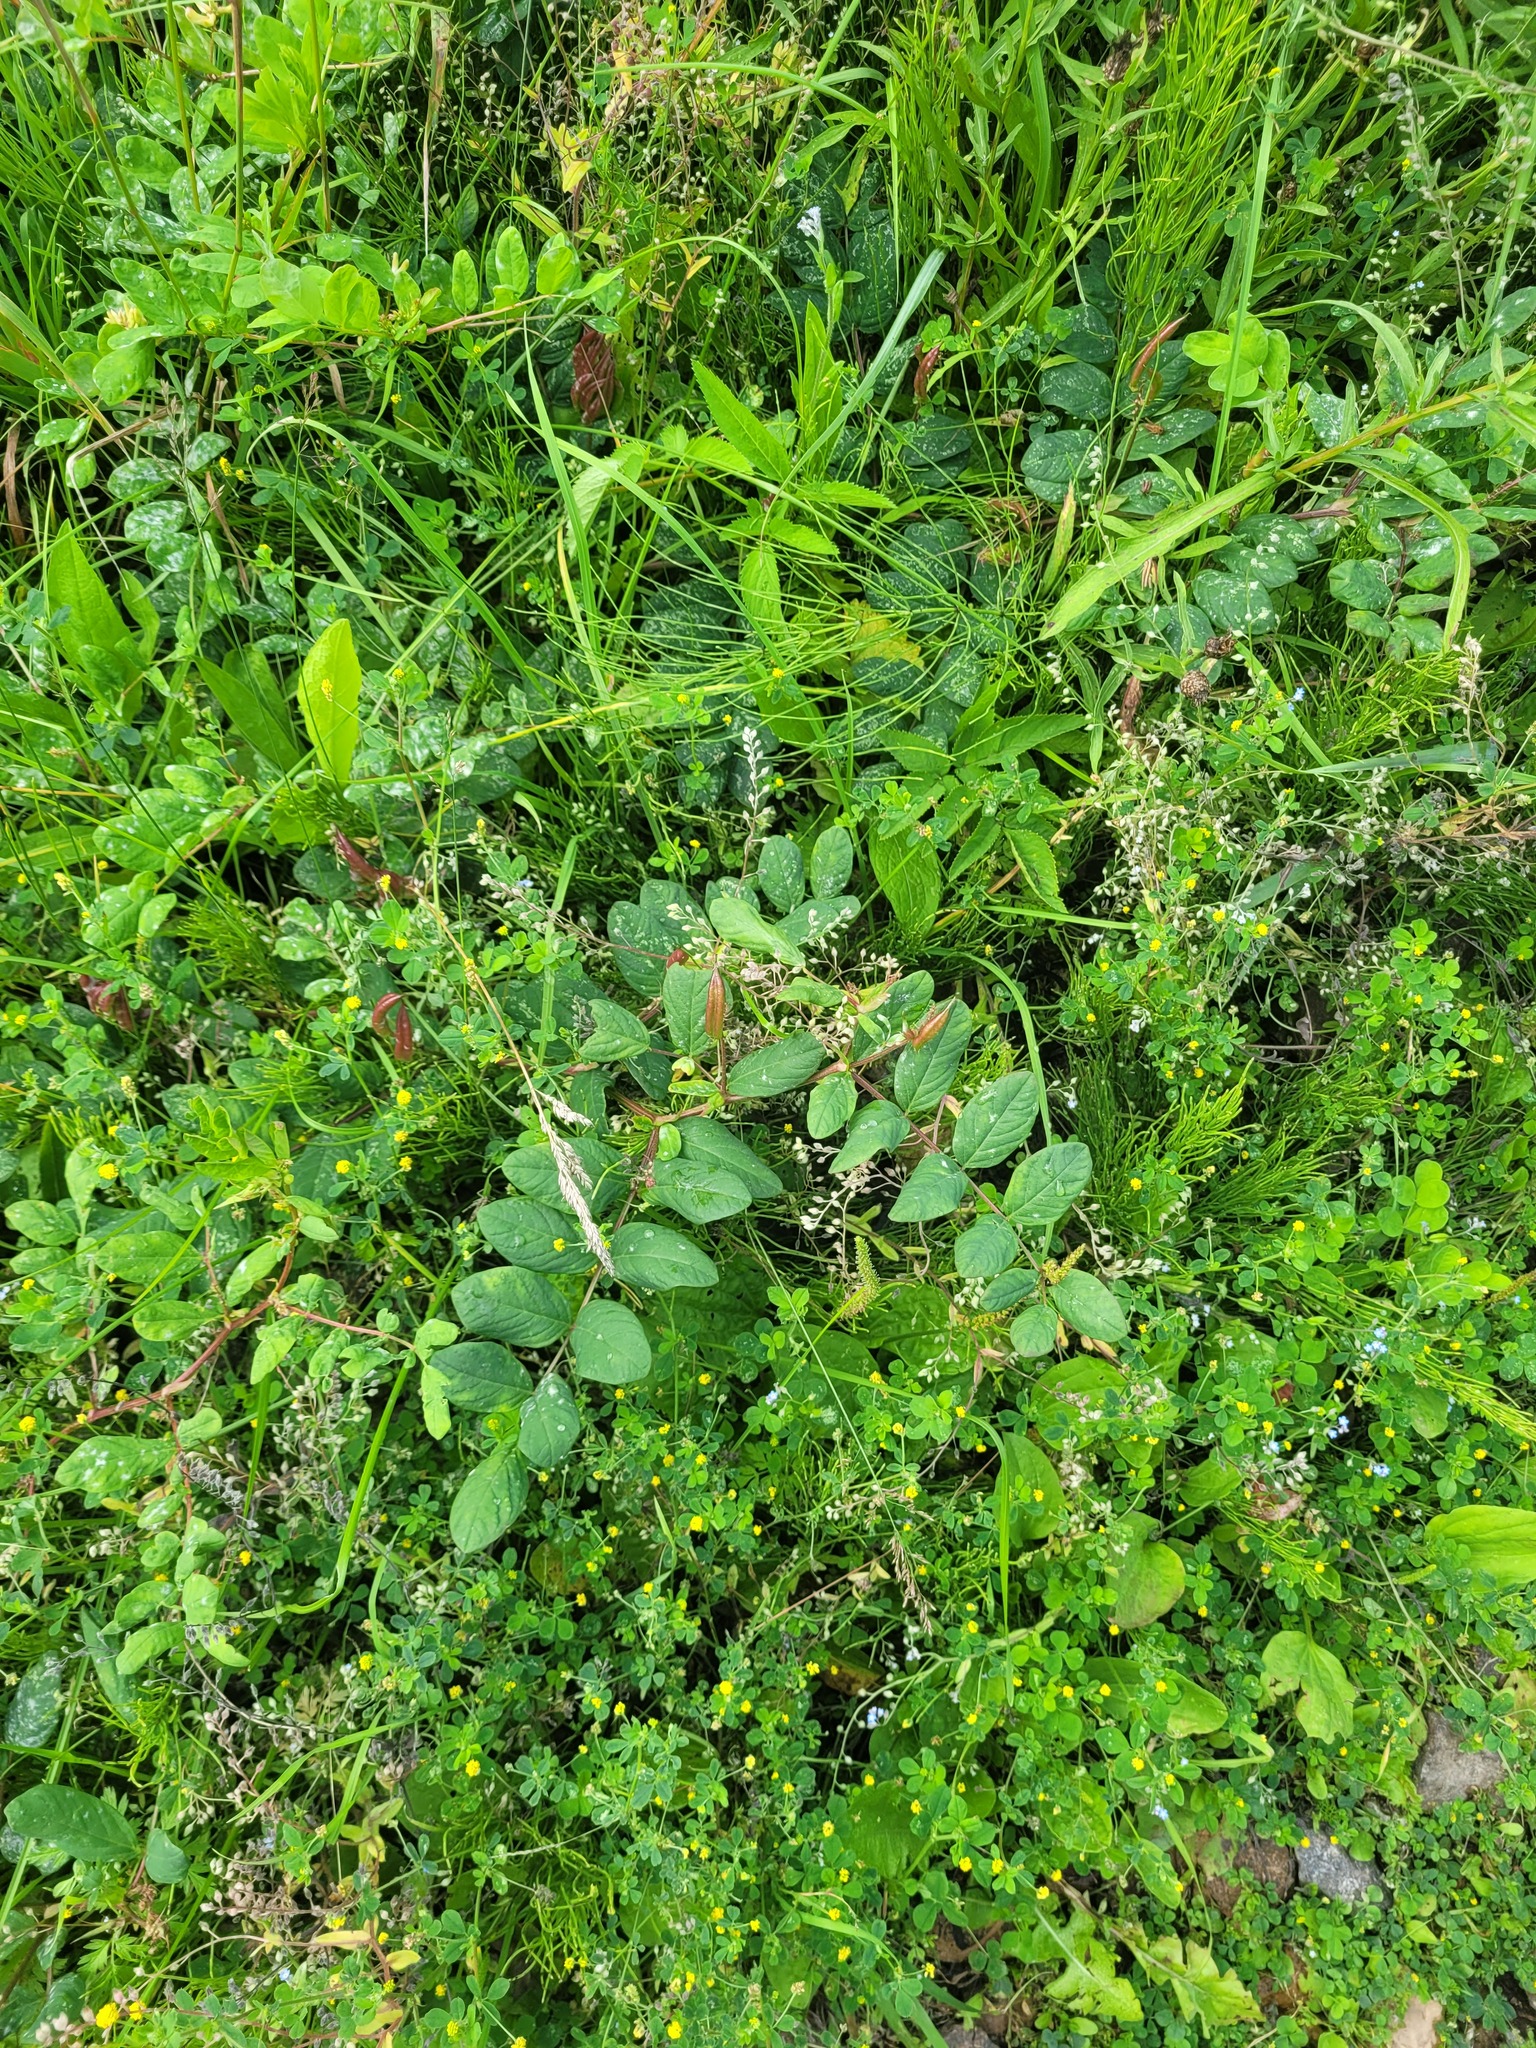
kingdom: Plantae
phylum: Tracheophyta
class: Magnoliopsida
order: Fabales
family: Fabaceae
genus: Astragalus
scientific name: Astragalus glycyphyllos
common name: Wild liquorice
